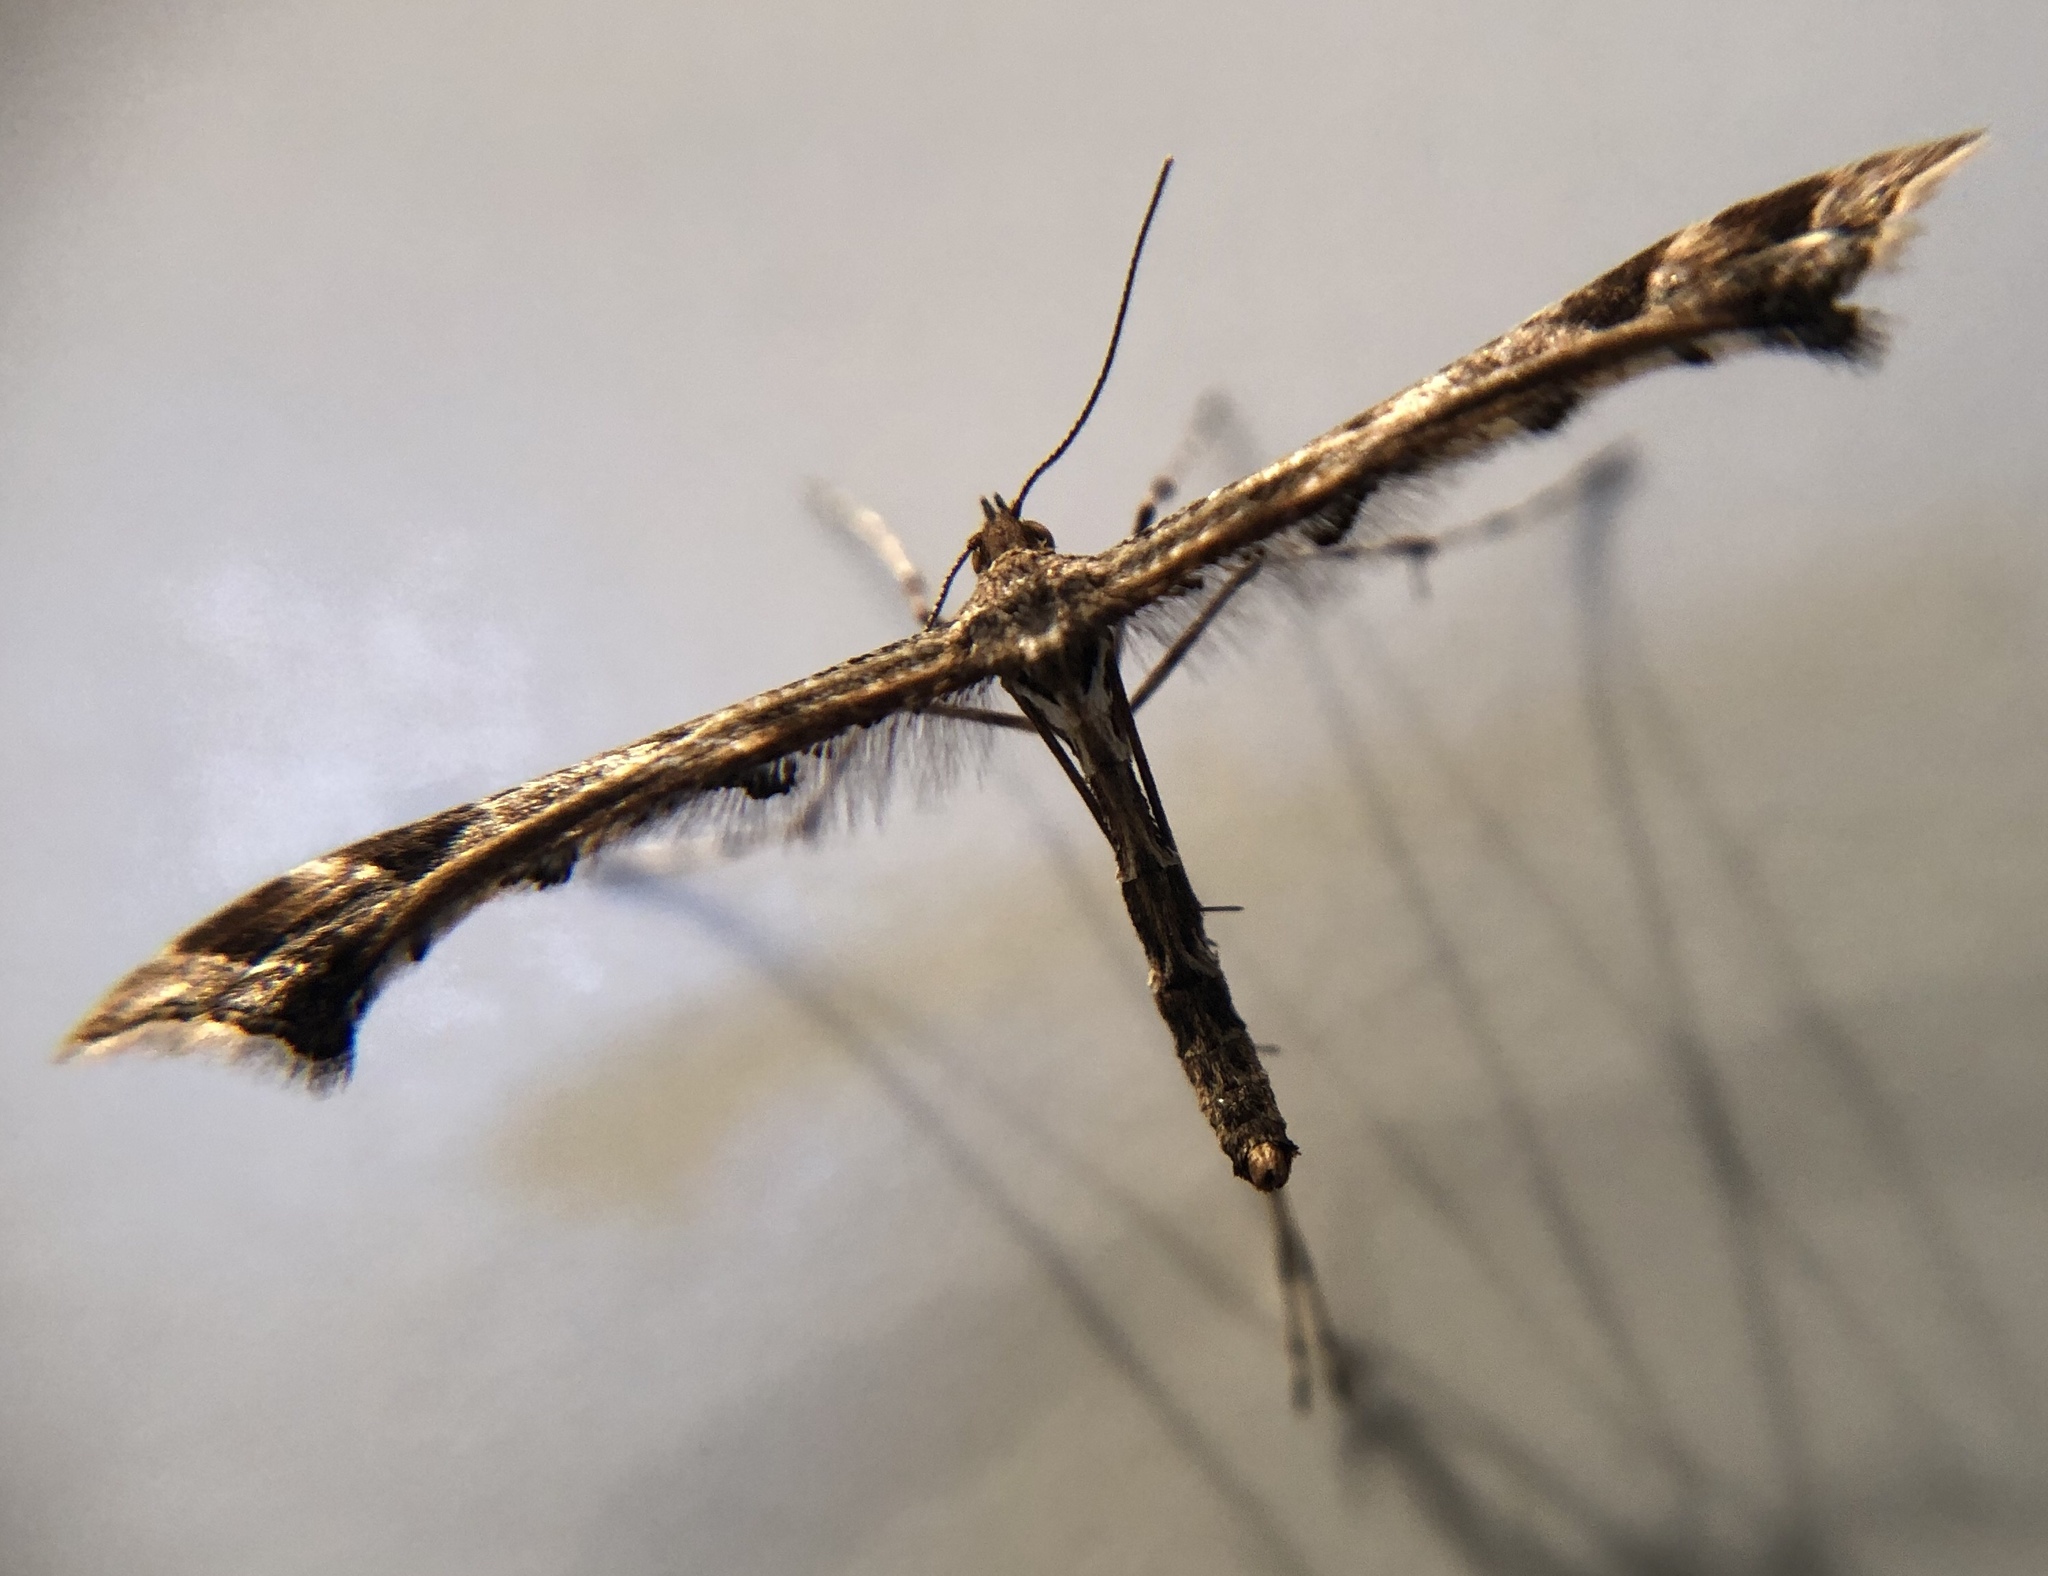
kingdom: Animalia
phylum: Arthropoda
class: Insecta
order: Lepidoptera
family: Pterophoridae
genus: Amblyptilia
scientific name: Amblyptilia acanthadactyla
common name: Beautiful plume
